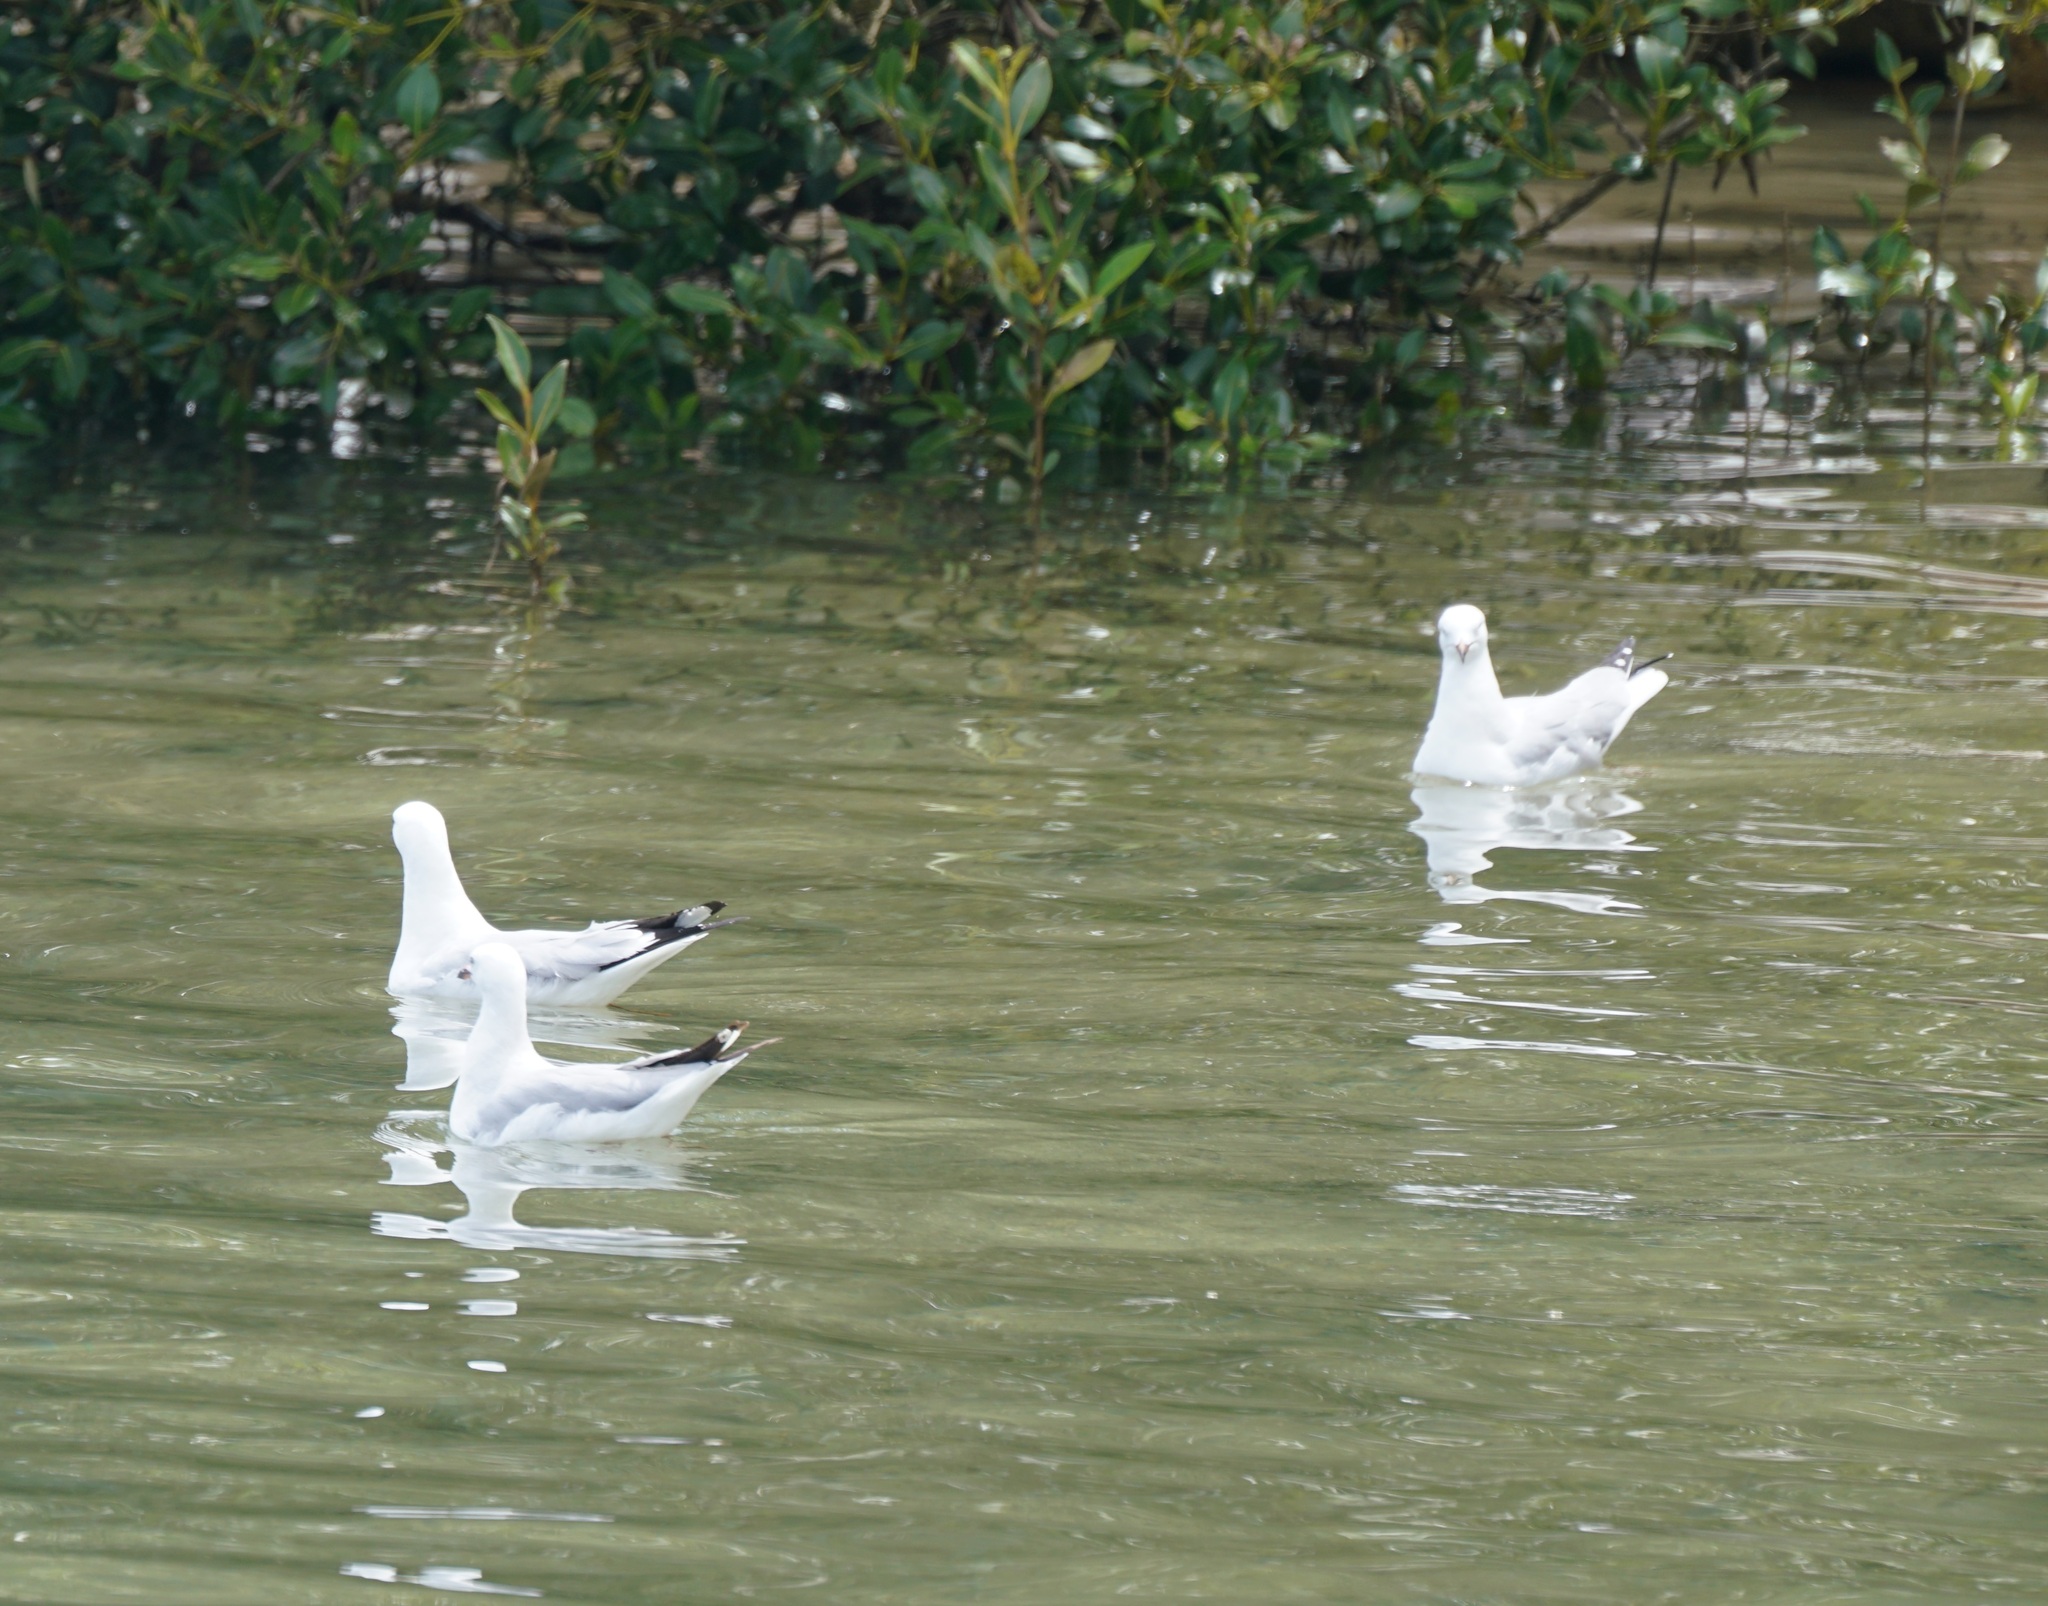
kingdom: Animalia
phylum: Chordata
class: Aves
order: Charadriiformes
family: Laridae
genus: Chroicocephalus
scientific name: Chroicocephalus novaehollandiae
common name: Silver gull
